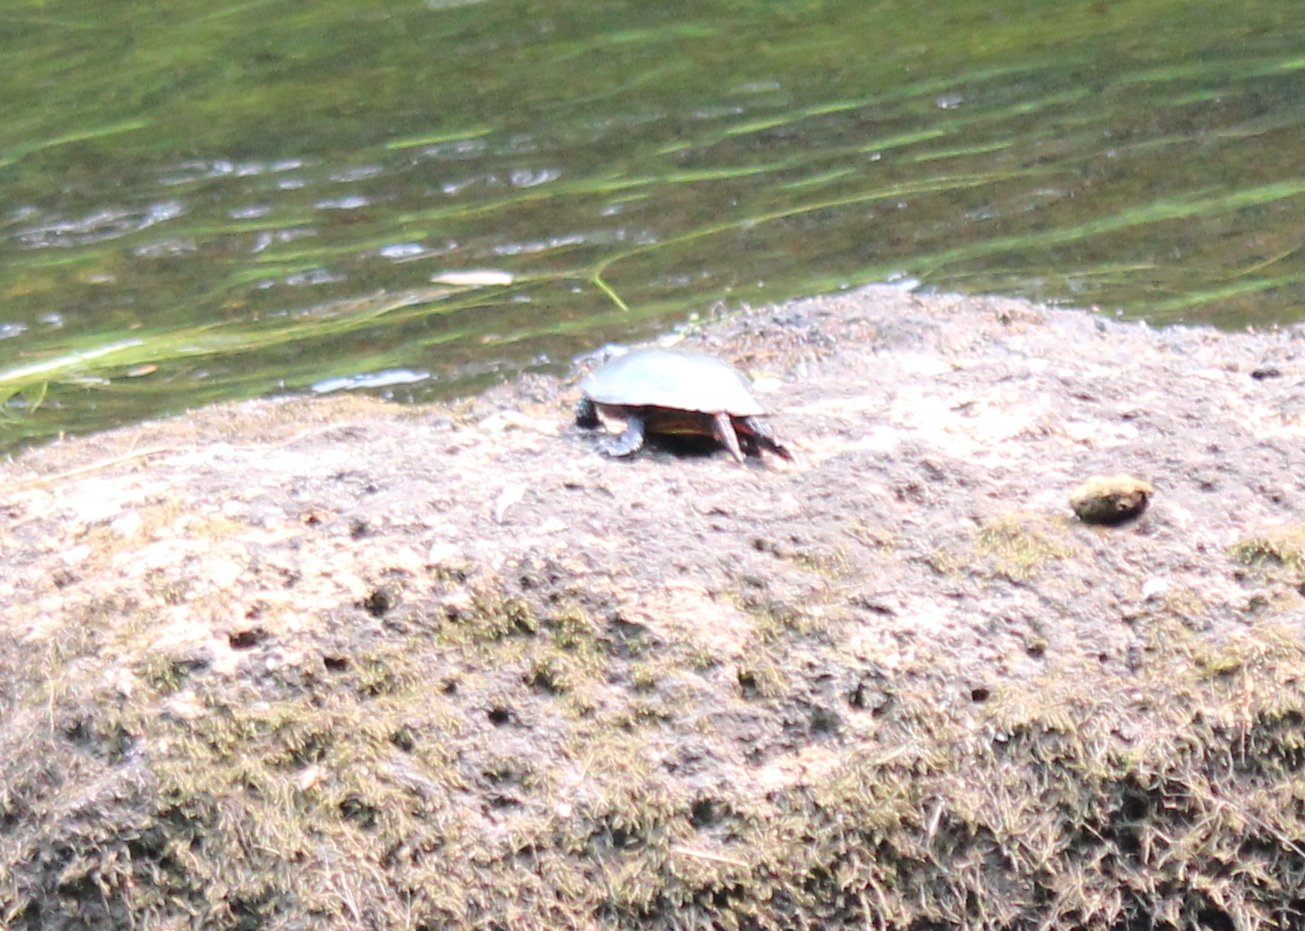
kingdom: Animalia
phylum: Chordata
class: Testudines
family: Emydidae
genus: Chrysemys
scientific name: Chrysemys picta
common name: Painted turtle
